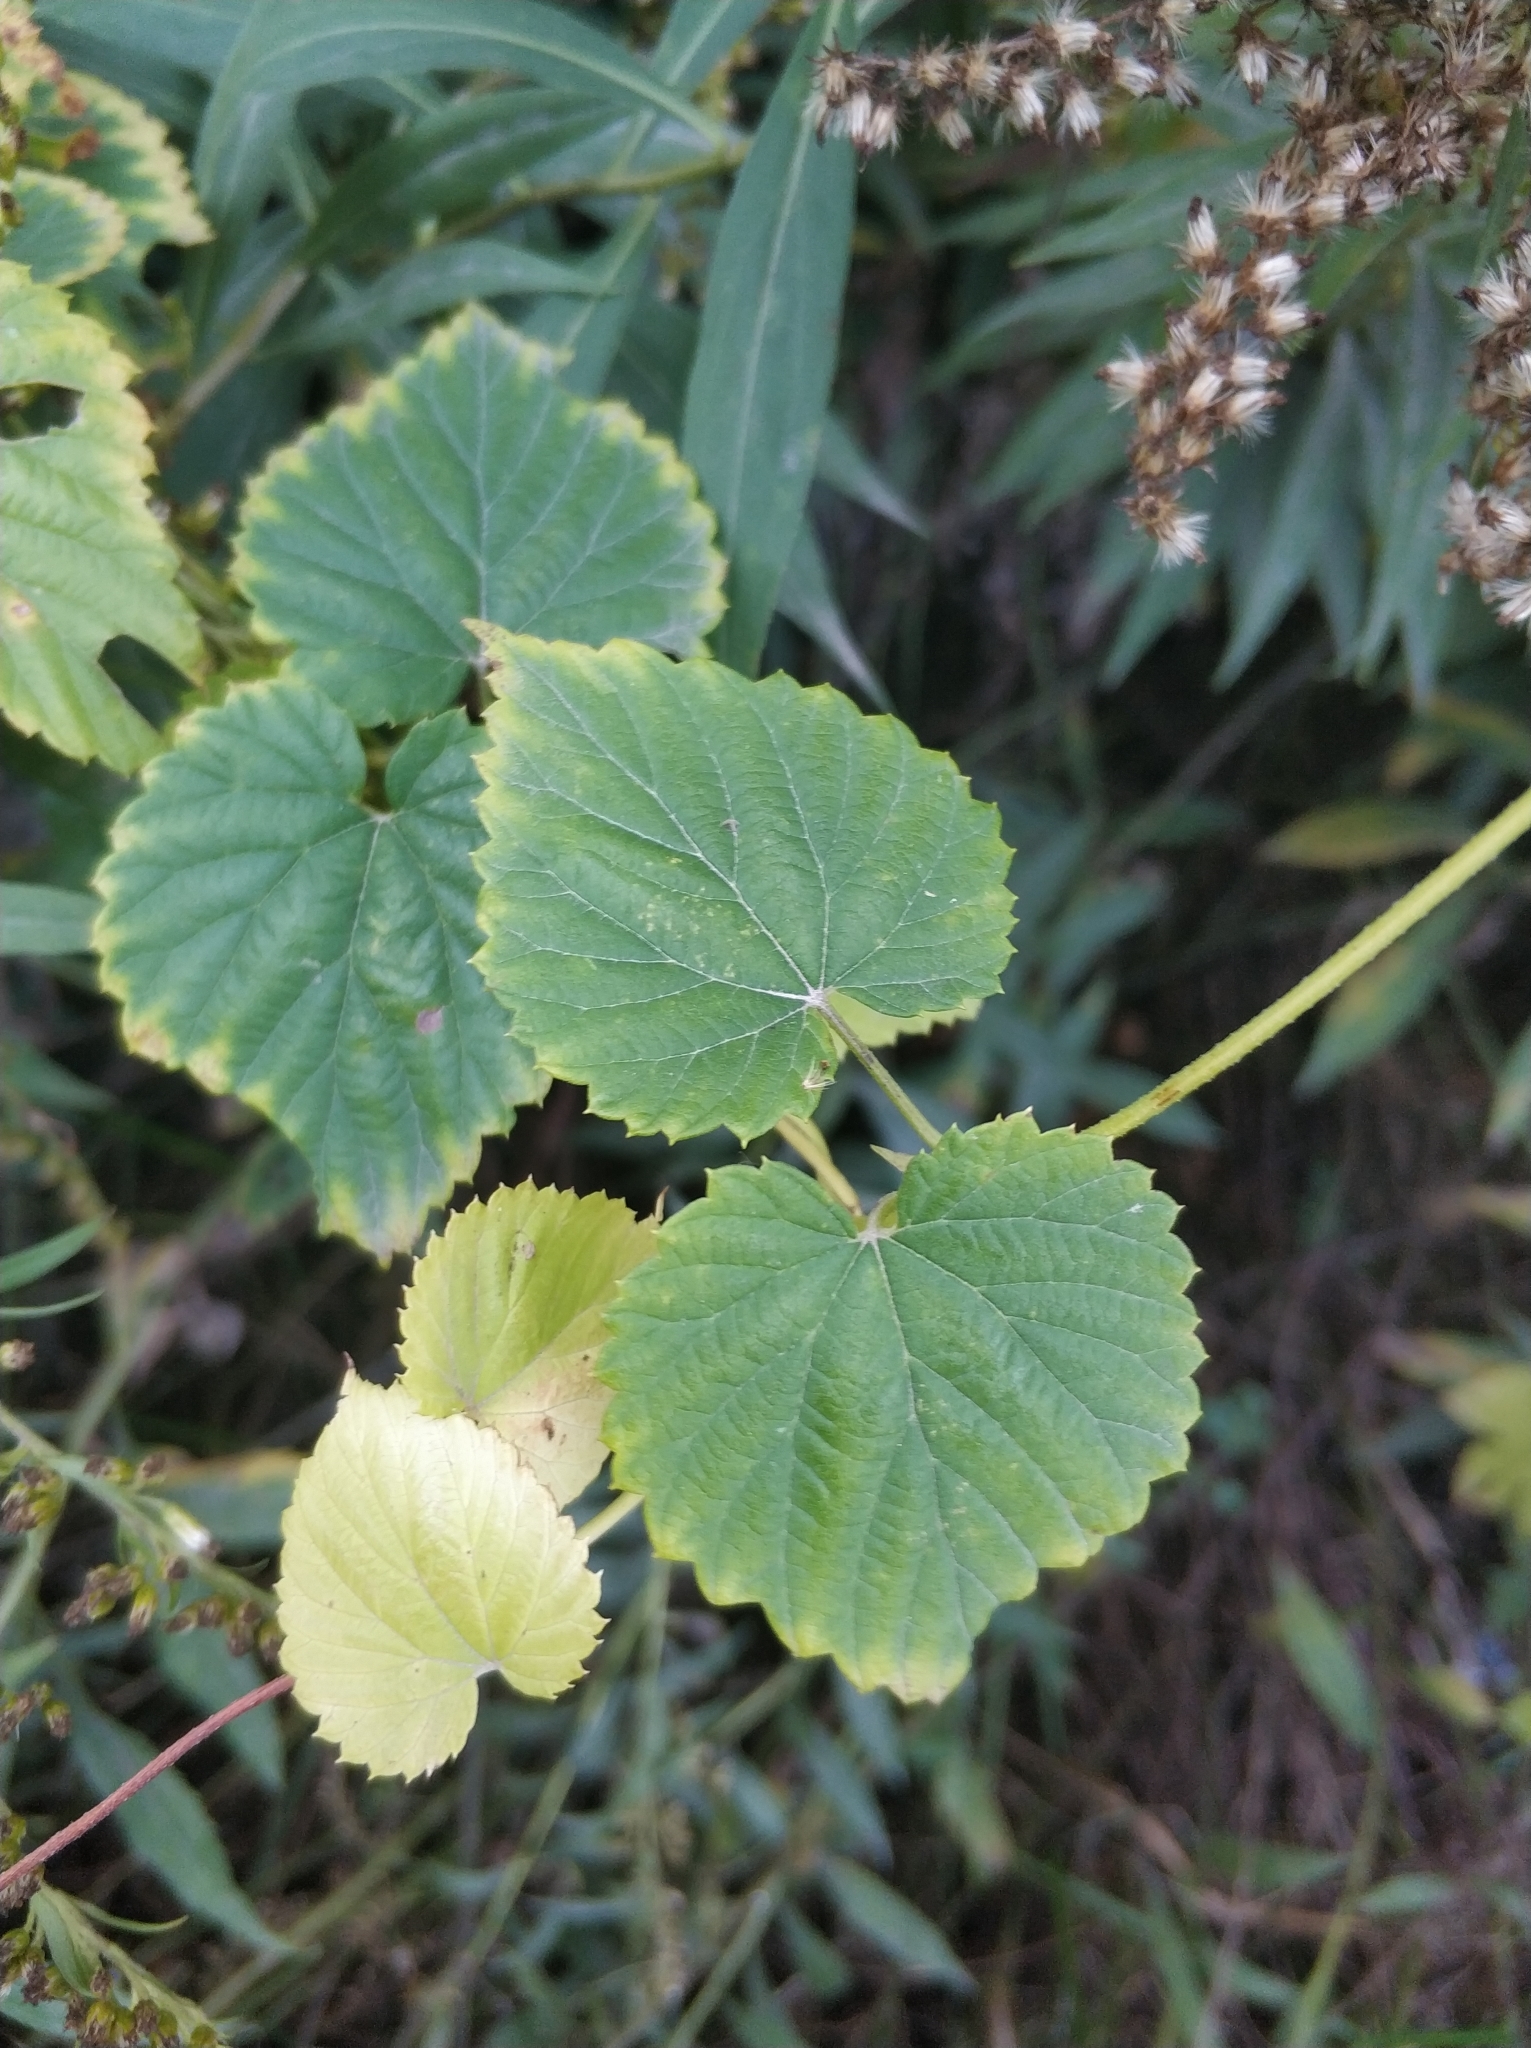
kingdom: Plantae
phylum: Tracheophyta
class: Magnoliopsida
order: Rosales
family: Cannabaceae
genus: Humulus
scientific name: Humulus lupulus
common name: Hop
